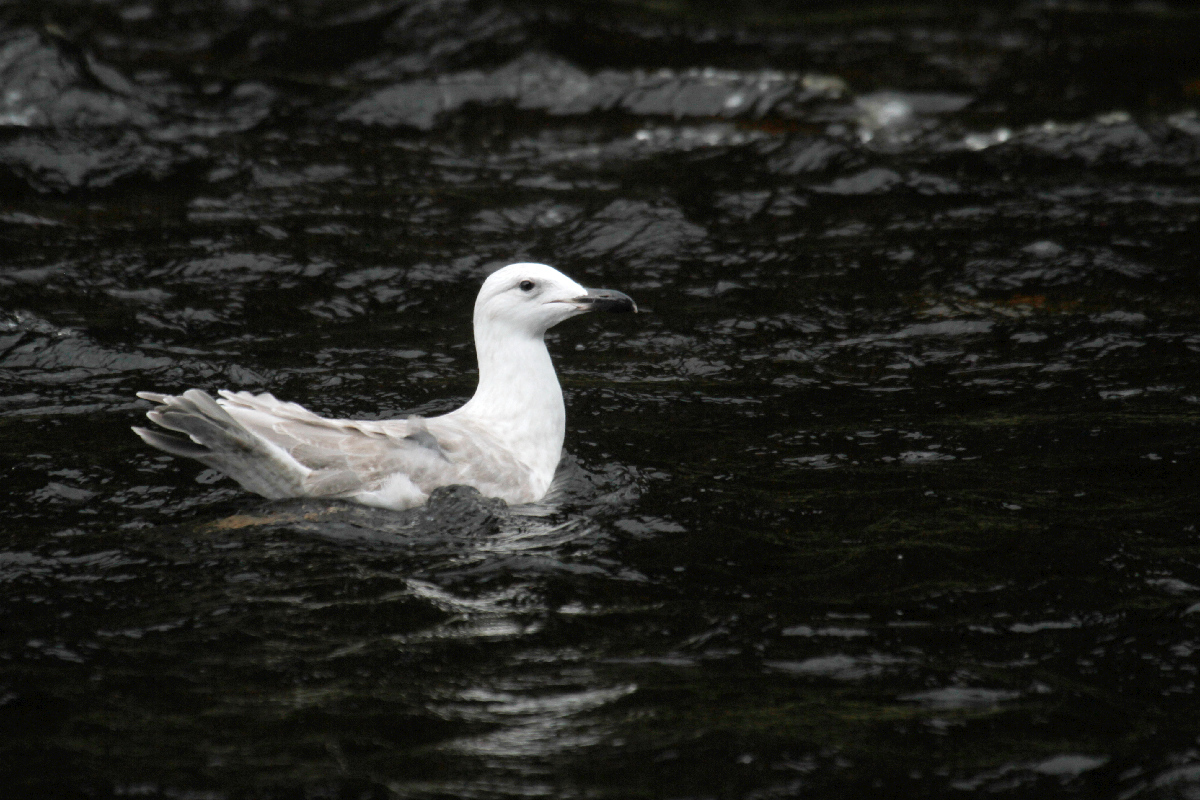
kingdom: Animalia
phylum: Chordata
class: Aves
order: Charadriiformes
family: Laridae
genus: Larus
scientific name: Larus glaucescens
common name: Glaucous-winged gull
